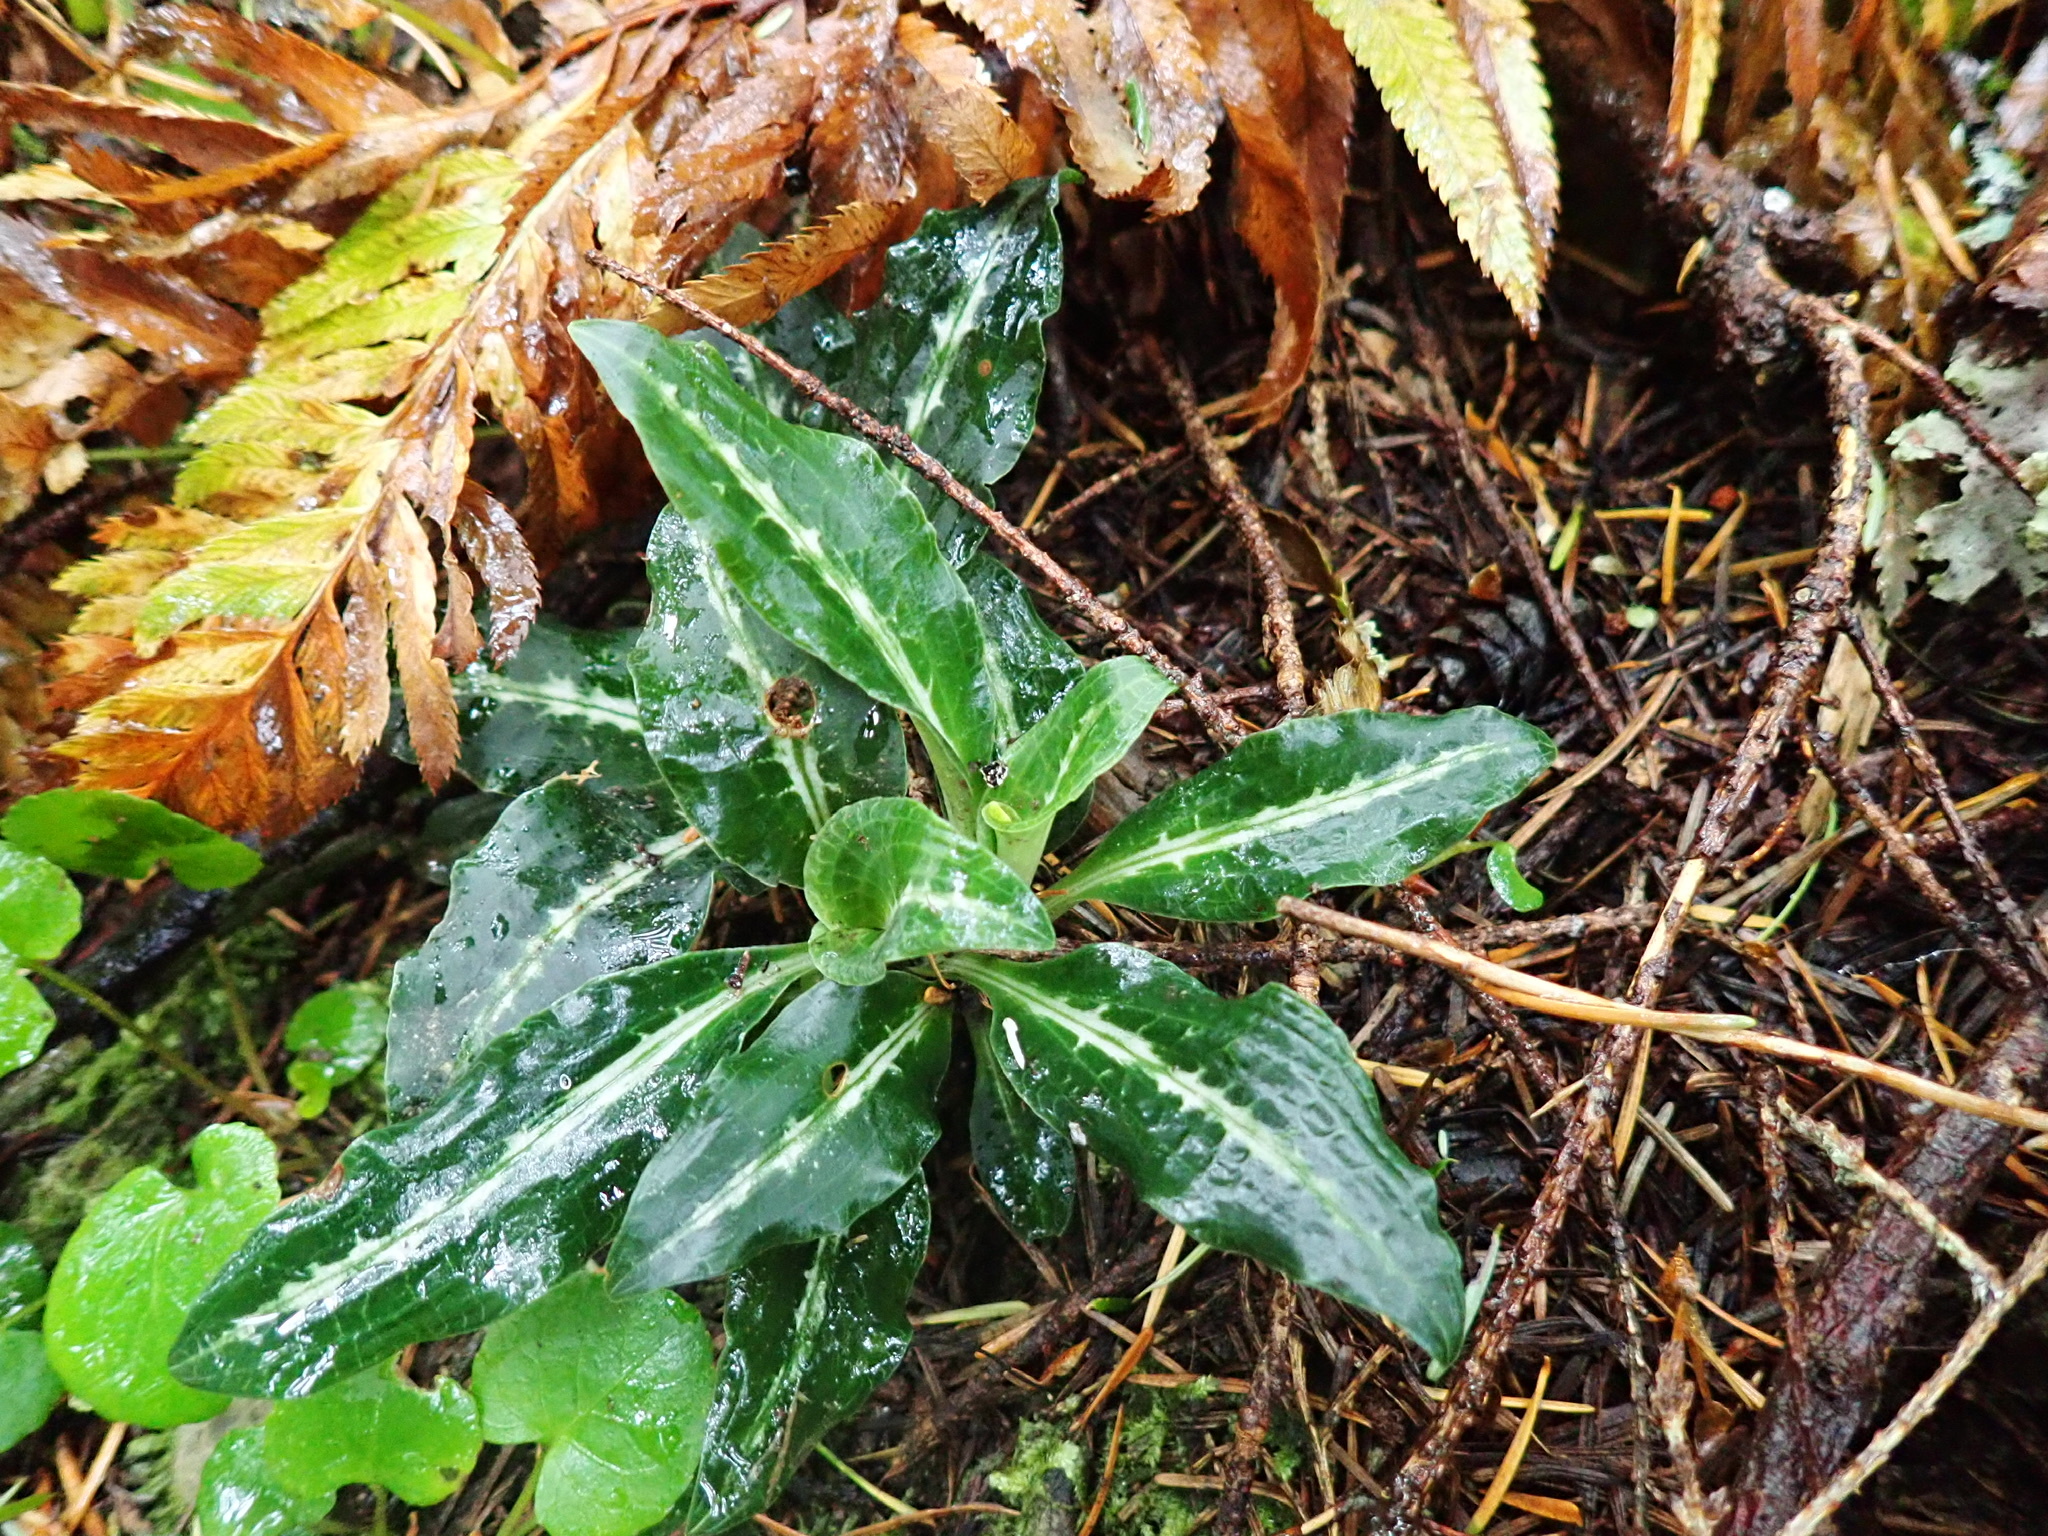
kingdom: Plantae
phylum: Tracheophyta
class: Liliopsida
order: Asparagales
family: Orchidaceae
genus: Goodyera
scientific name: Goodyera oblongifolia
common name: Giant rattlesnake-plantain
